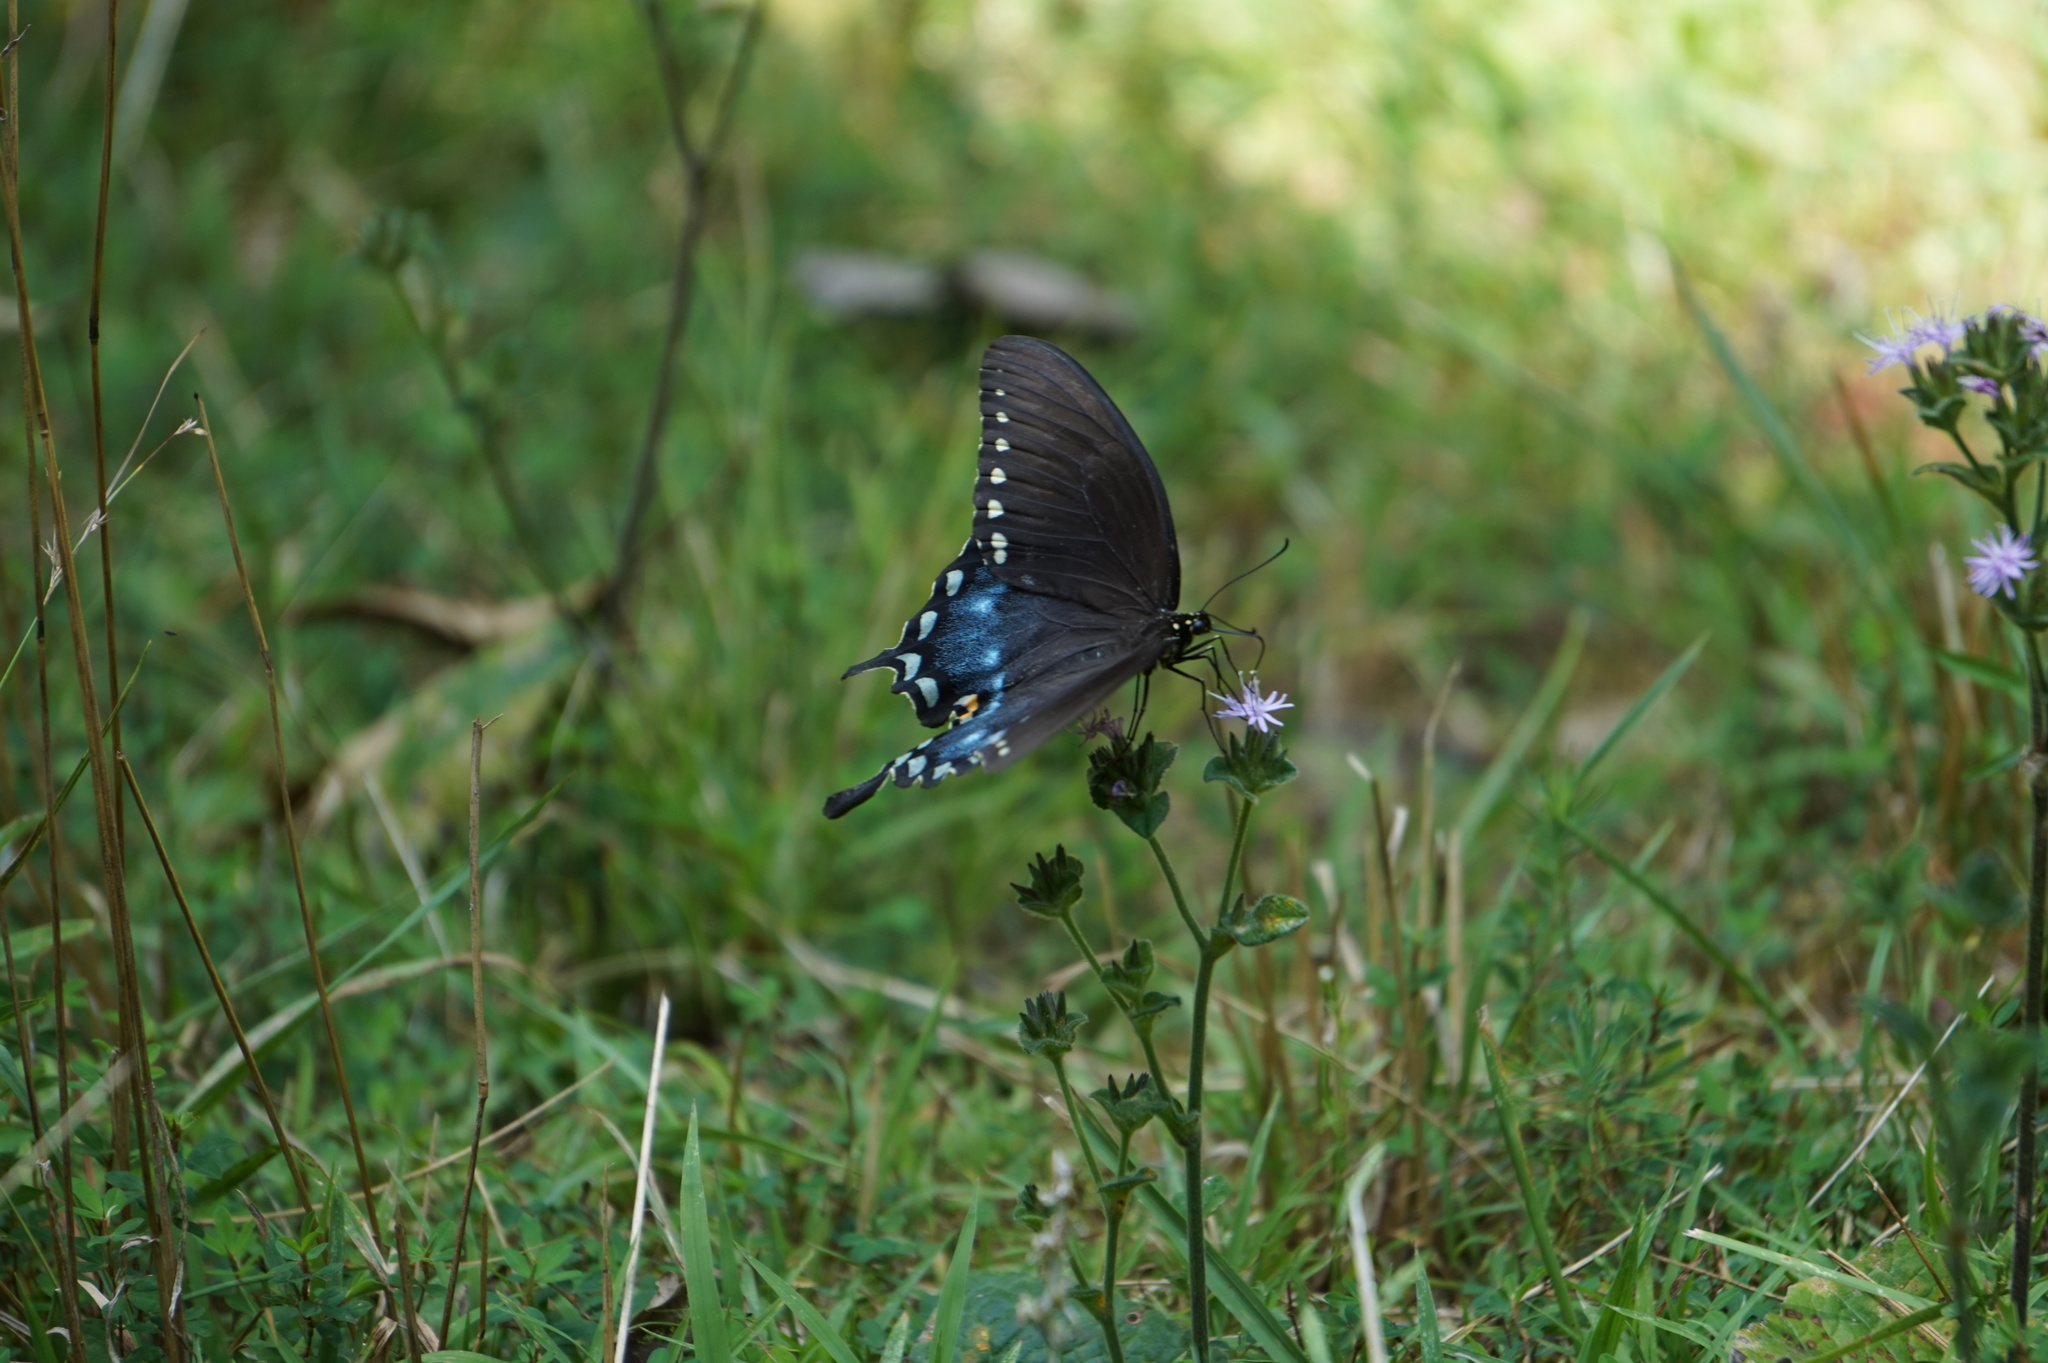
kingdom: Animalia
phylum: Arthropoda
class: Insecta
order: Lepidoptera
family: Papilionidae
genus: Papilio
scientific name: Papilio troilus
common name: Spicebush swallowtail
